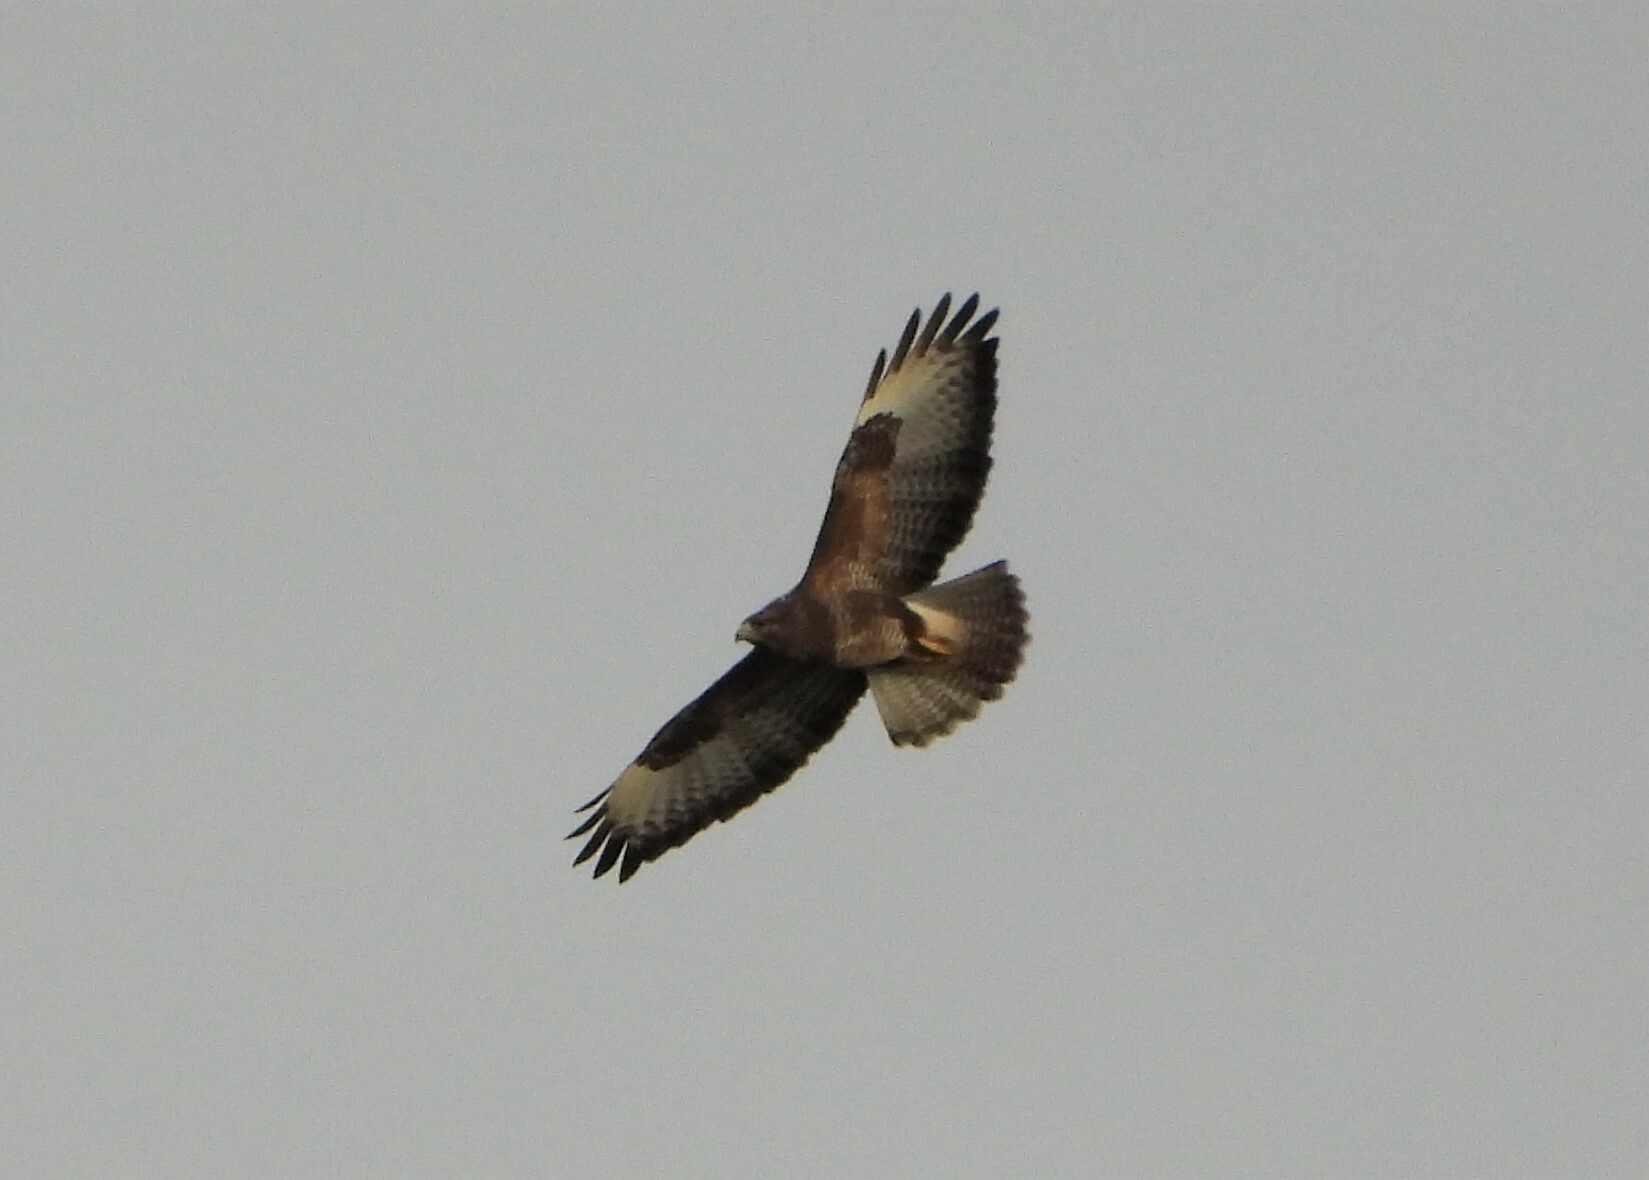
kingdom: Animalia
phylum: Chordata
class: Aves
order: Accipitriformes
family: Accipitridae
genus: Buteo
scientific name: Buteo buteo
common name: Common buzzard
